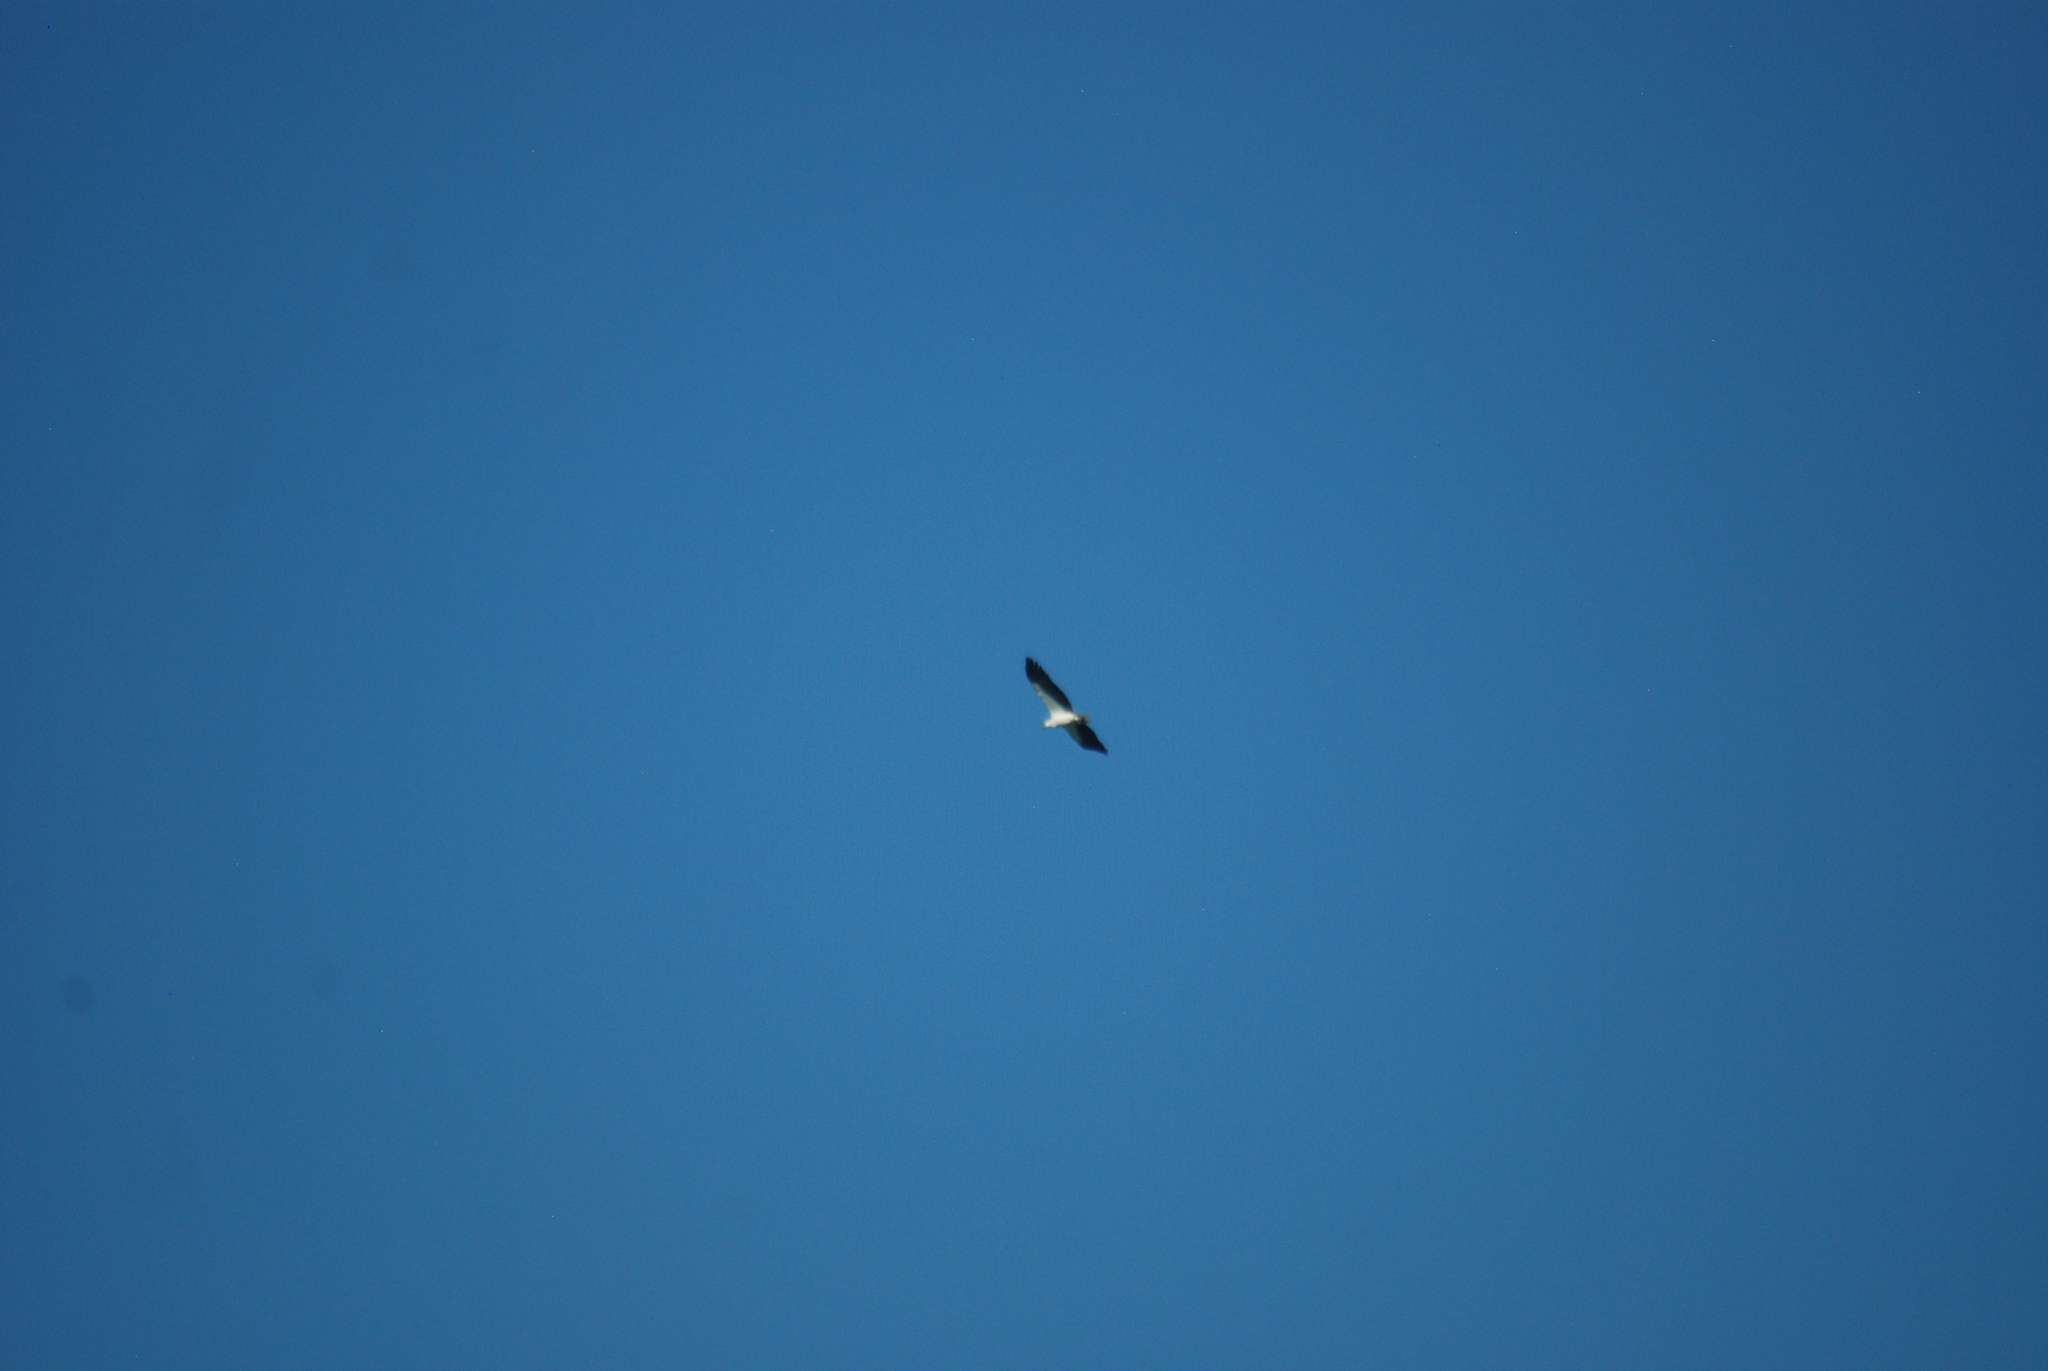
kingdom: Animalia
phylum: Chordata
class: Aves
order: Accipitriformes
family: Accipitridae
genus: Haliaeetus
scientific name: Haliaeetus leucogaster
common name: White-bellied sea eagle
